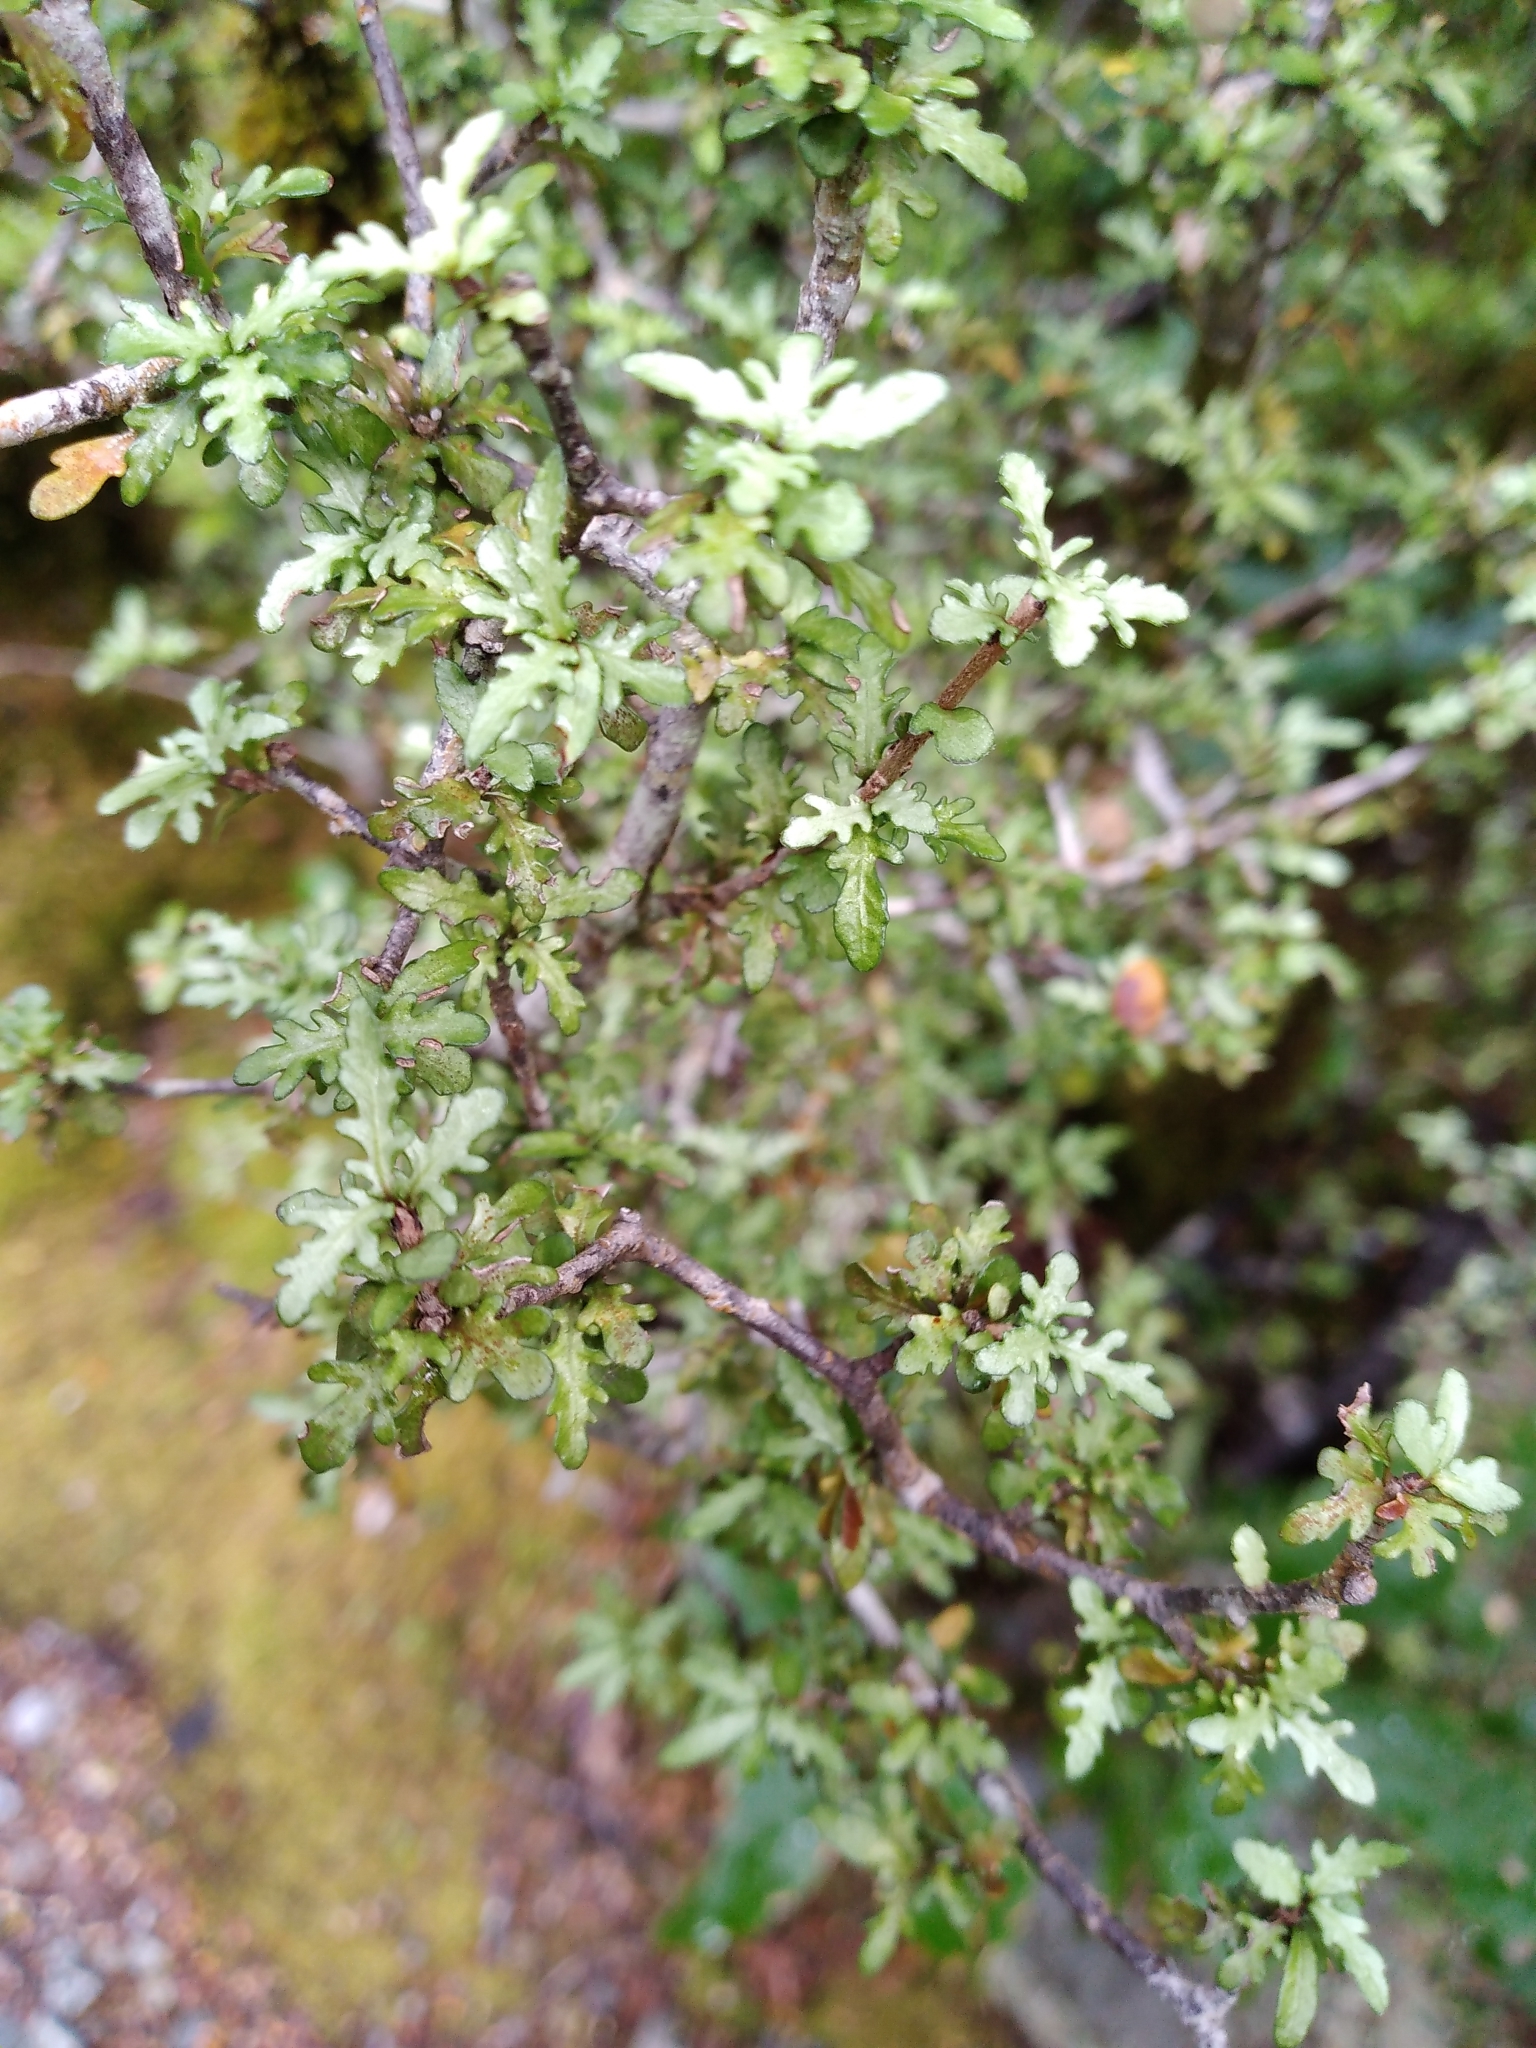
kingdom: Plantae
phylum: Tracheophyta
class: Magnoliopsida
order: Apiales
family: Pittosporaceae
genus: Pittosporum
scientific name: Pittosporum divaricatum
